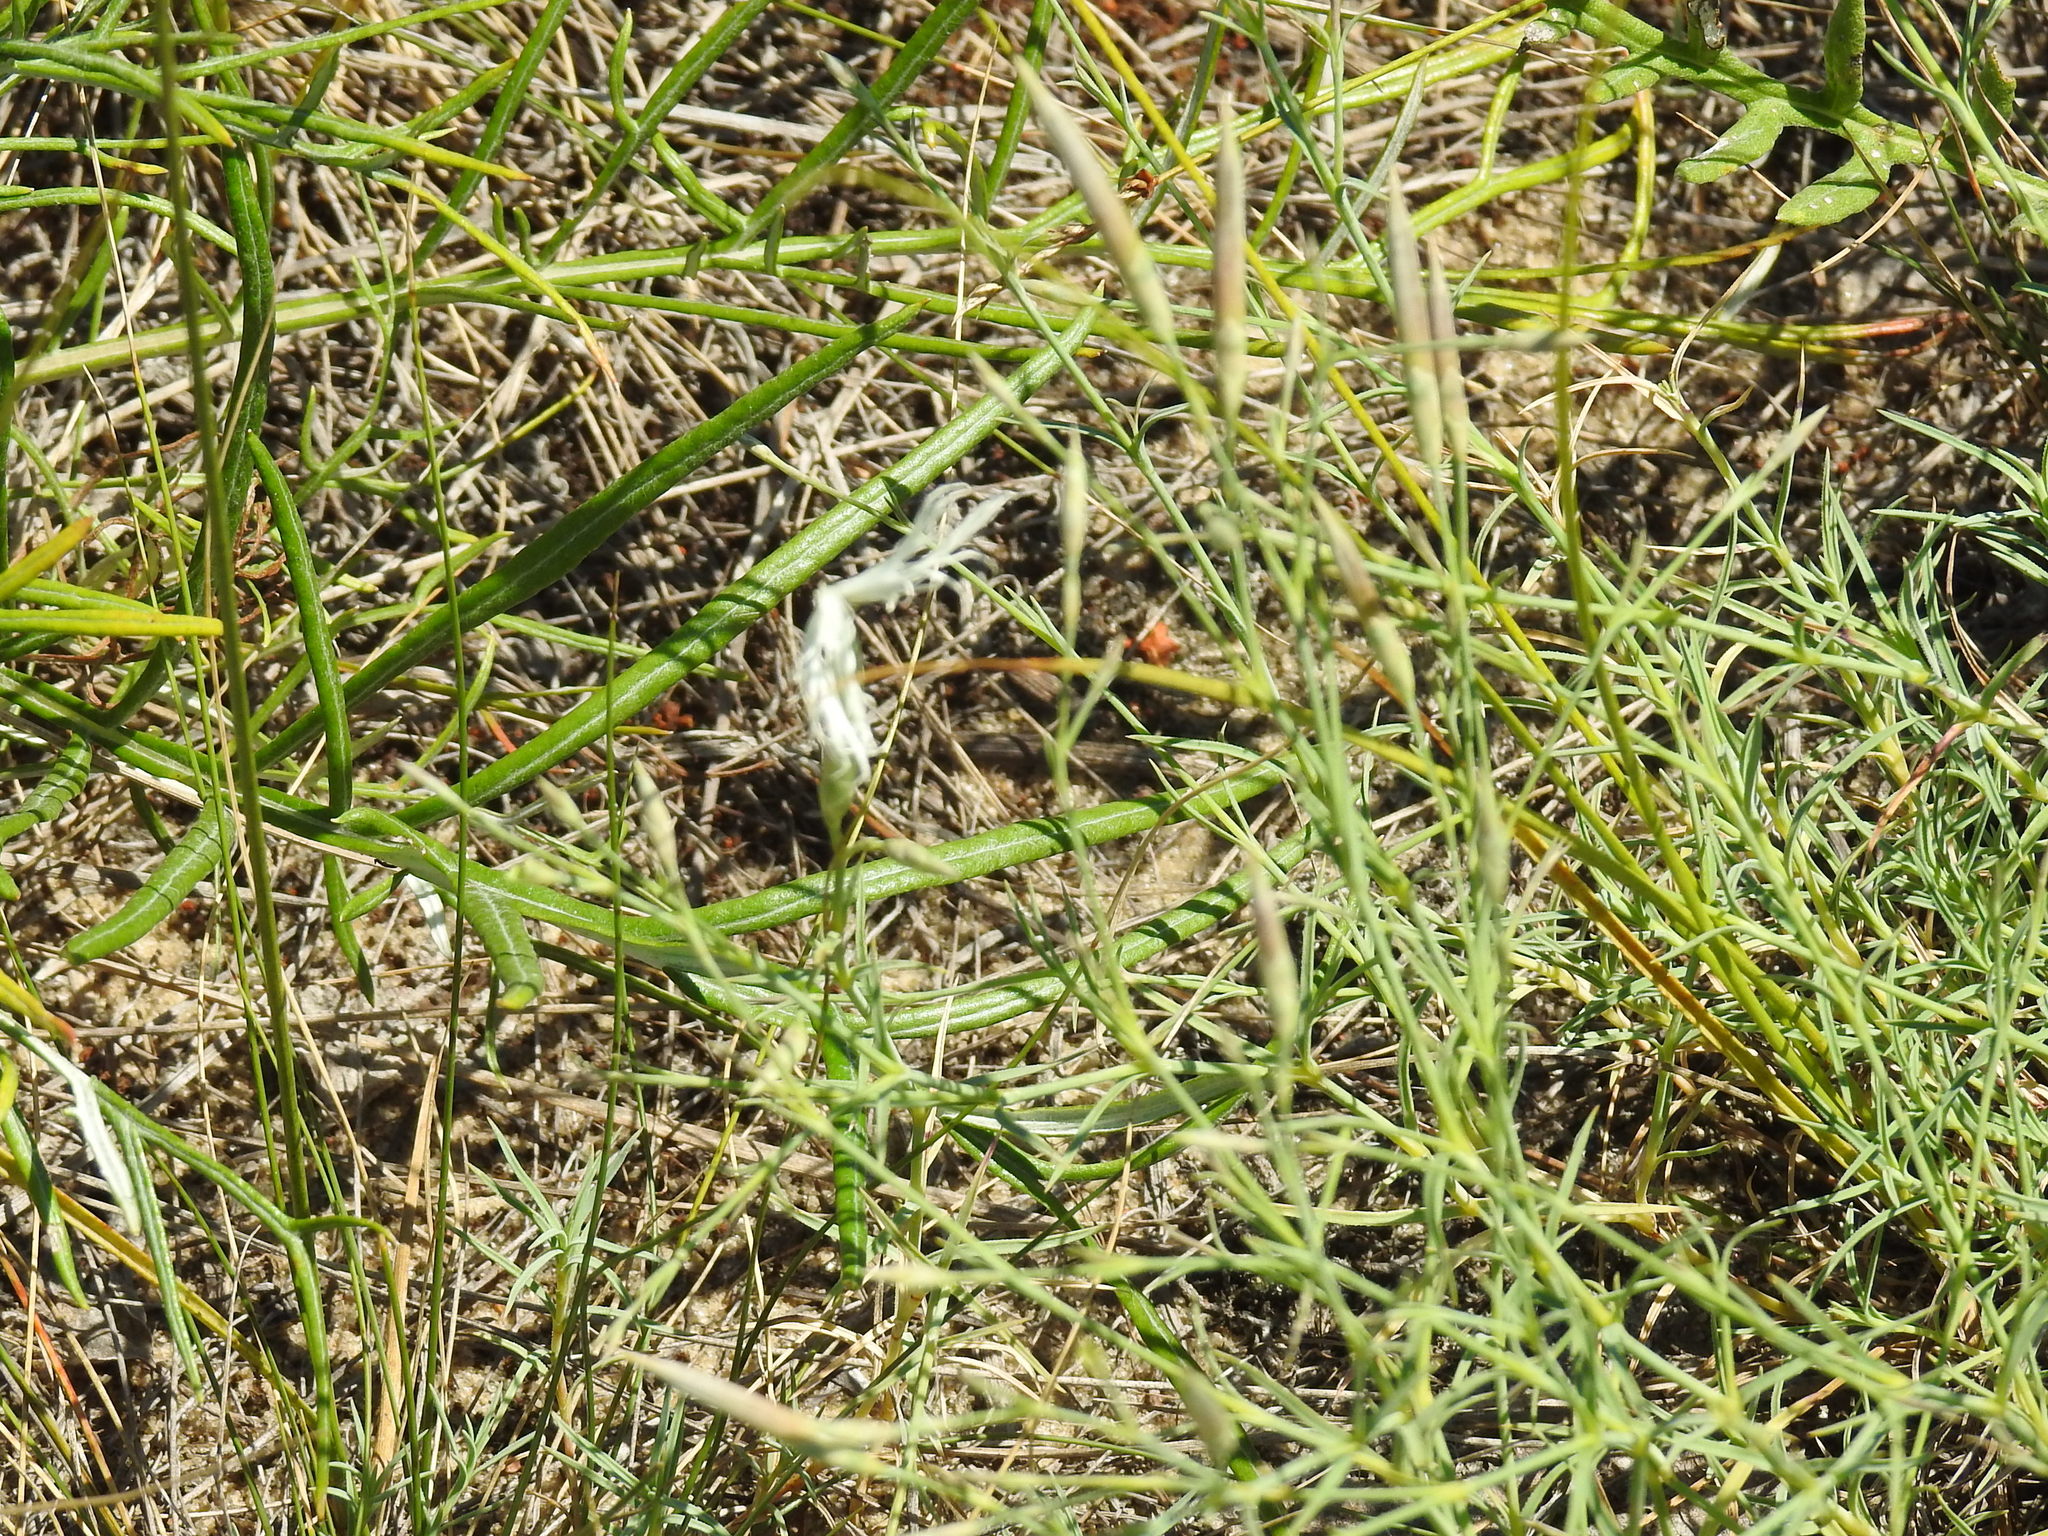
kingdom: Plantae
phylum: Tracheophyta
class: Magnoliopsida
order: Caryophyllales
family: Caryophyllaceae
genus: Dianthus
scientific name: Dianthus squarrosus
